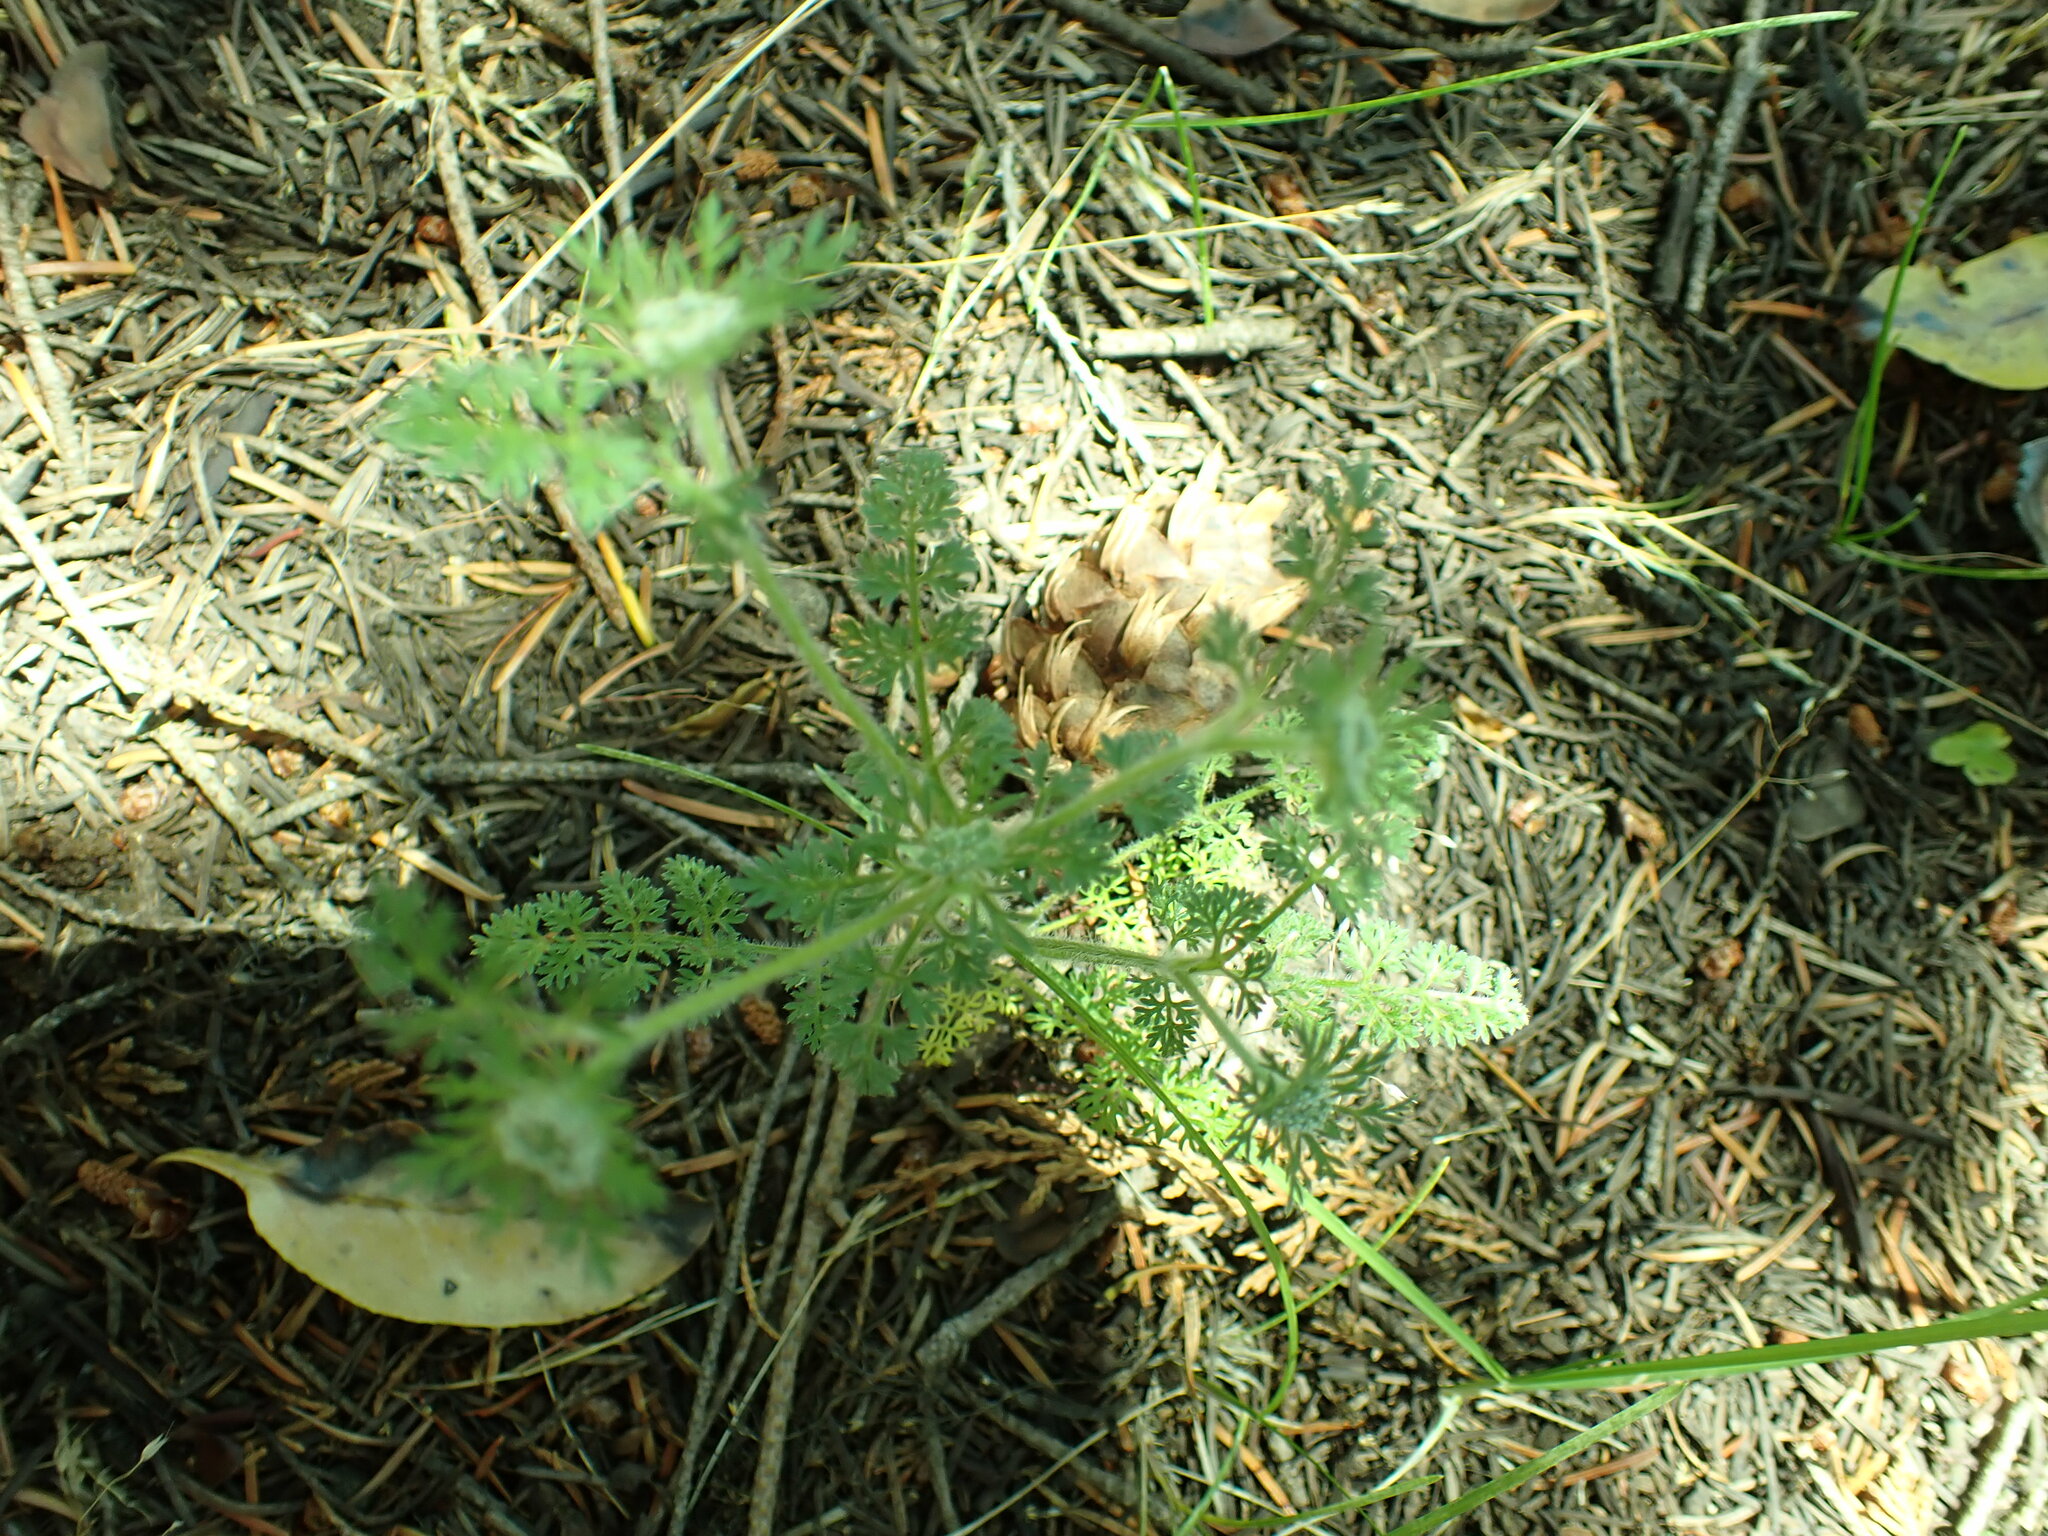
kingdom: Plantae
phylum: Tracheophyta
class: Magnoliopsida
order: Apiales
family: Apiaceae
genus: Daucus
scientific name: Daucus pusillus
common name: Southwest wild carrot
